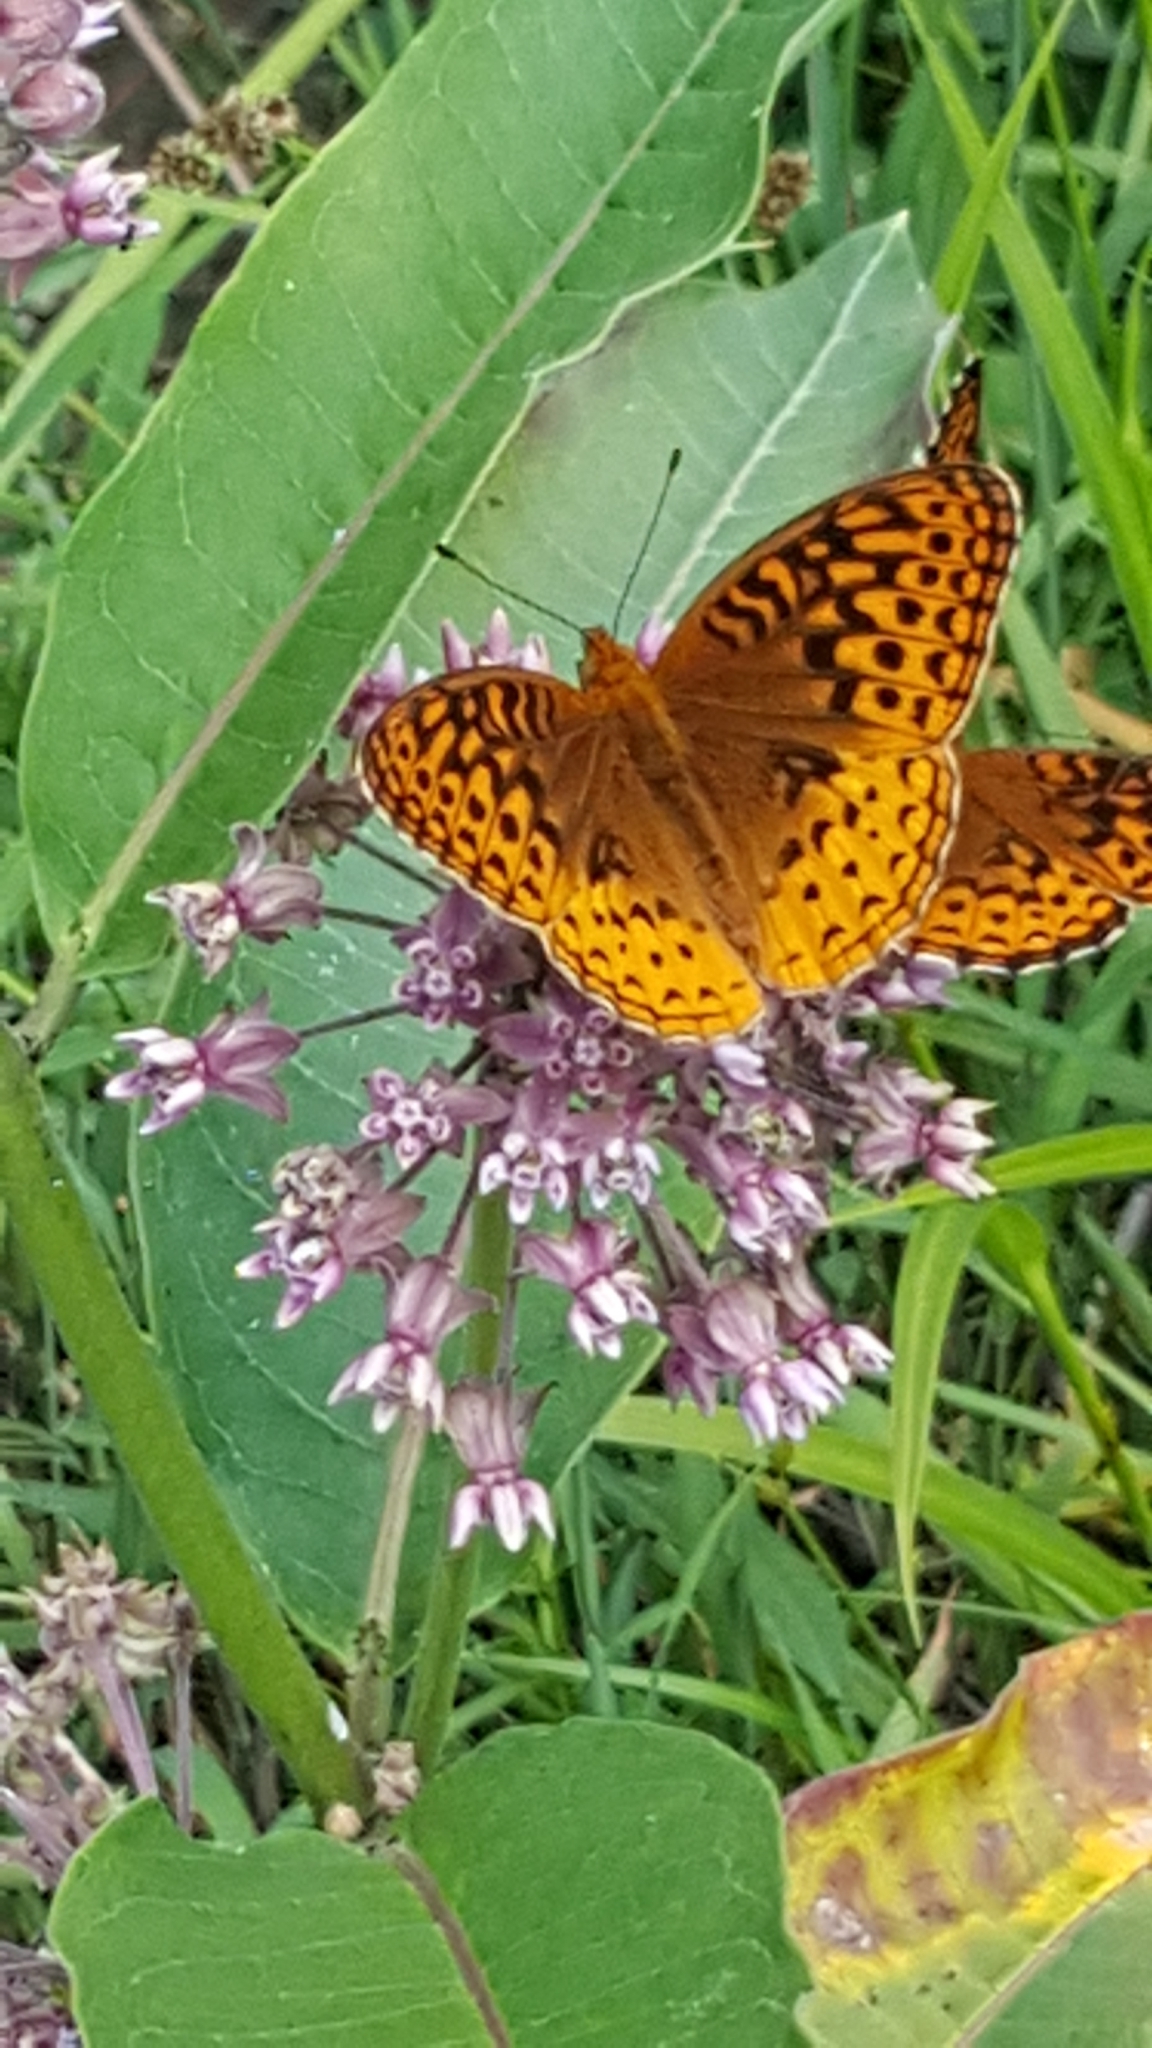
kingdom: Plantae
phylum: Tracheophyta
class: Magnoliopsida
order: Gentianales
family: Apocynaceae
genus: Asclepias
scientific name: Asclepias syriaca
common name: Common milkweed
